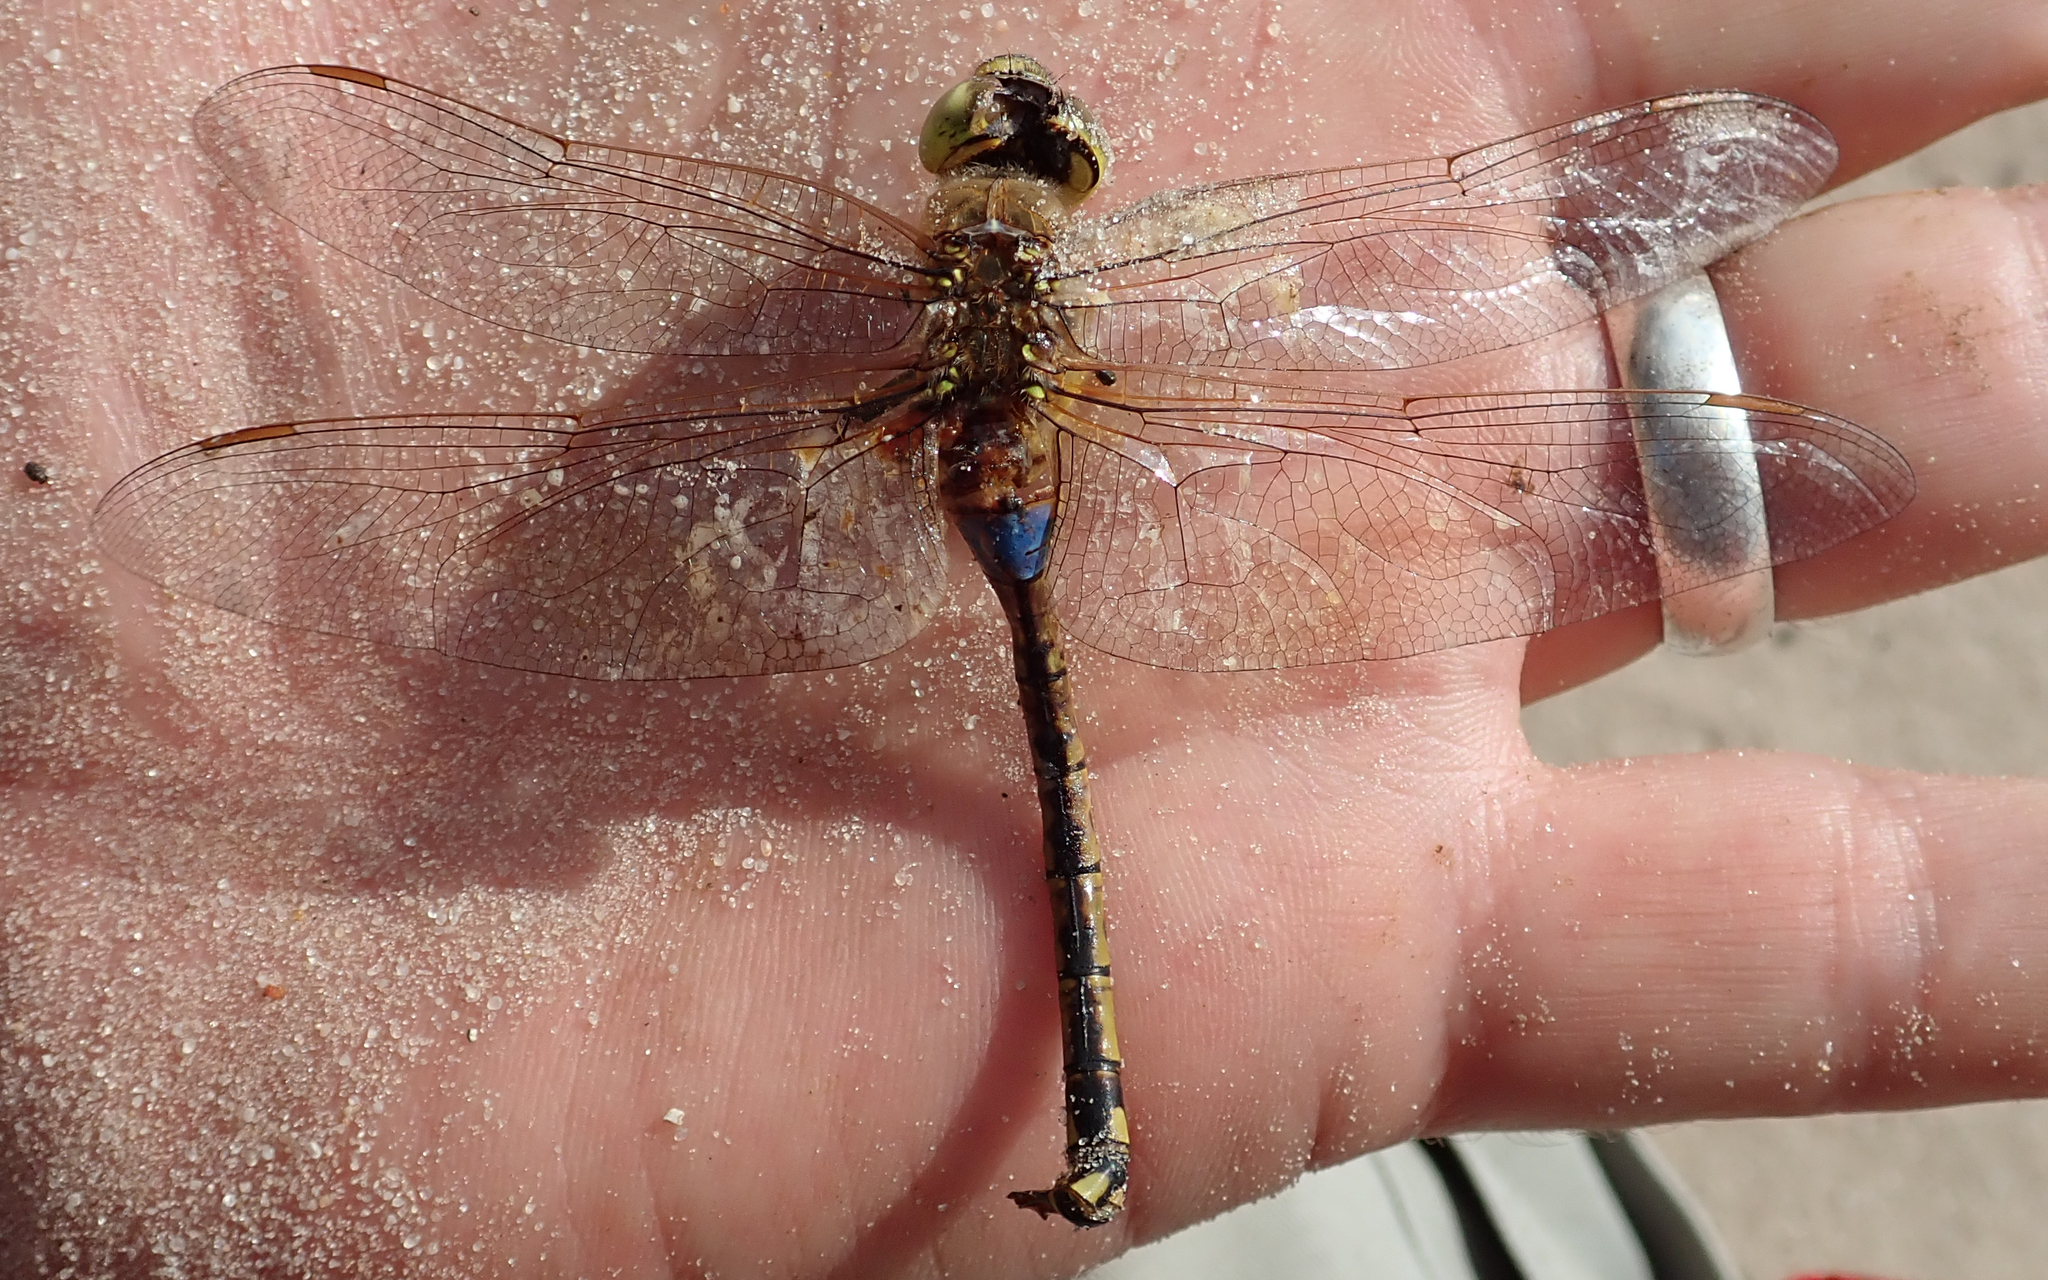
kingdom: Animalia
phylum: Arthropoda
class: Insecta
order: Odonata
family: Aeshnidae
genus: Anax
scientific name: Anax ephippiger
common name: Vagrant emperor
